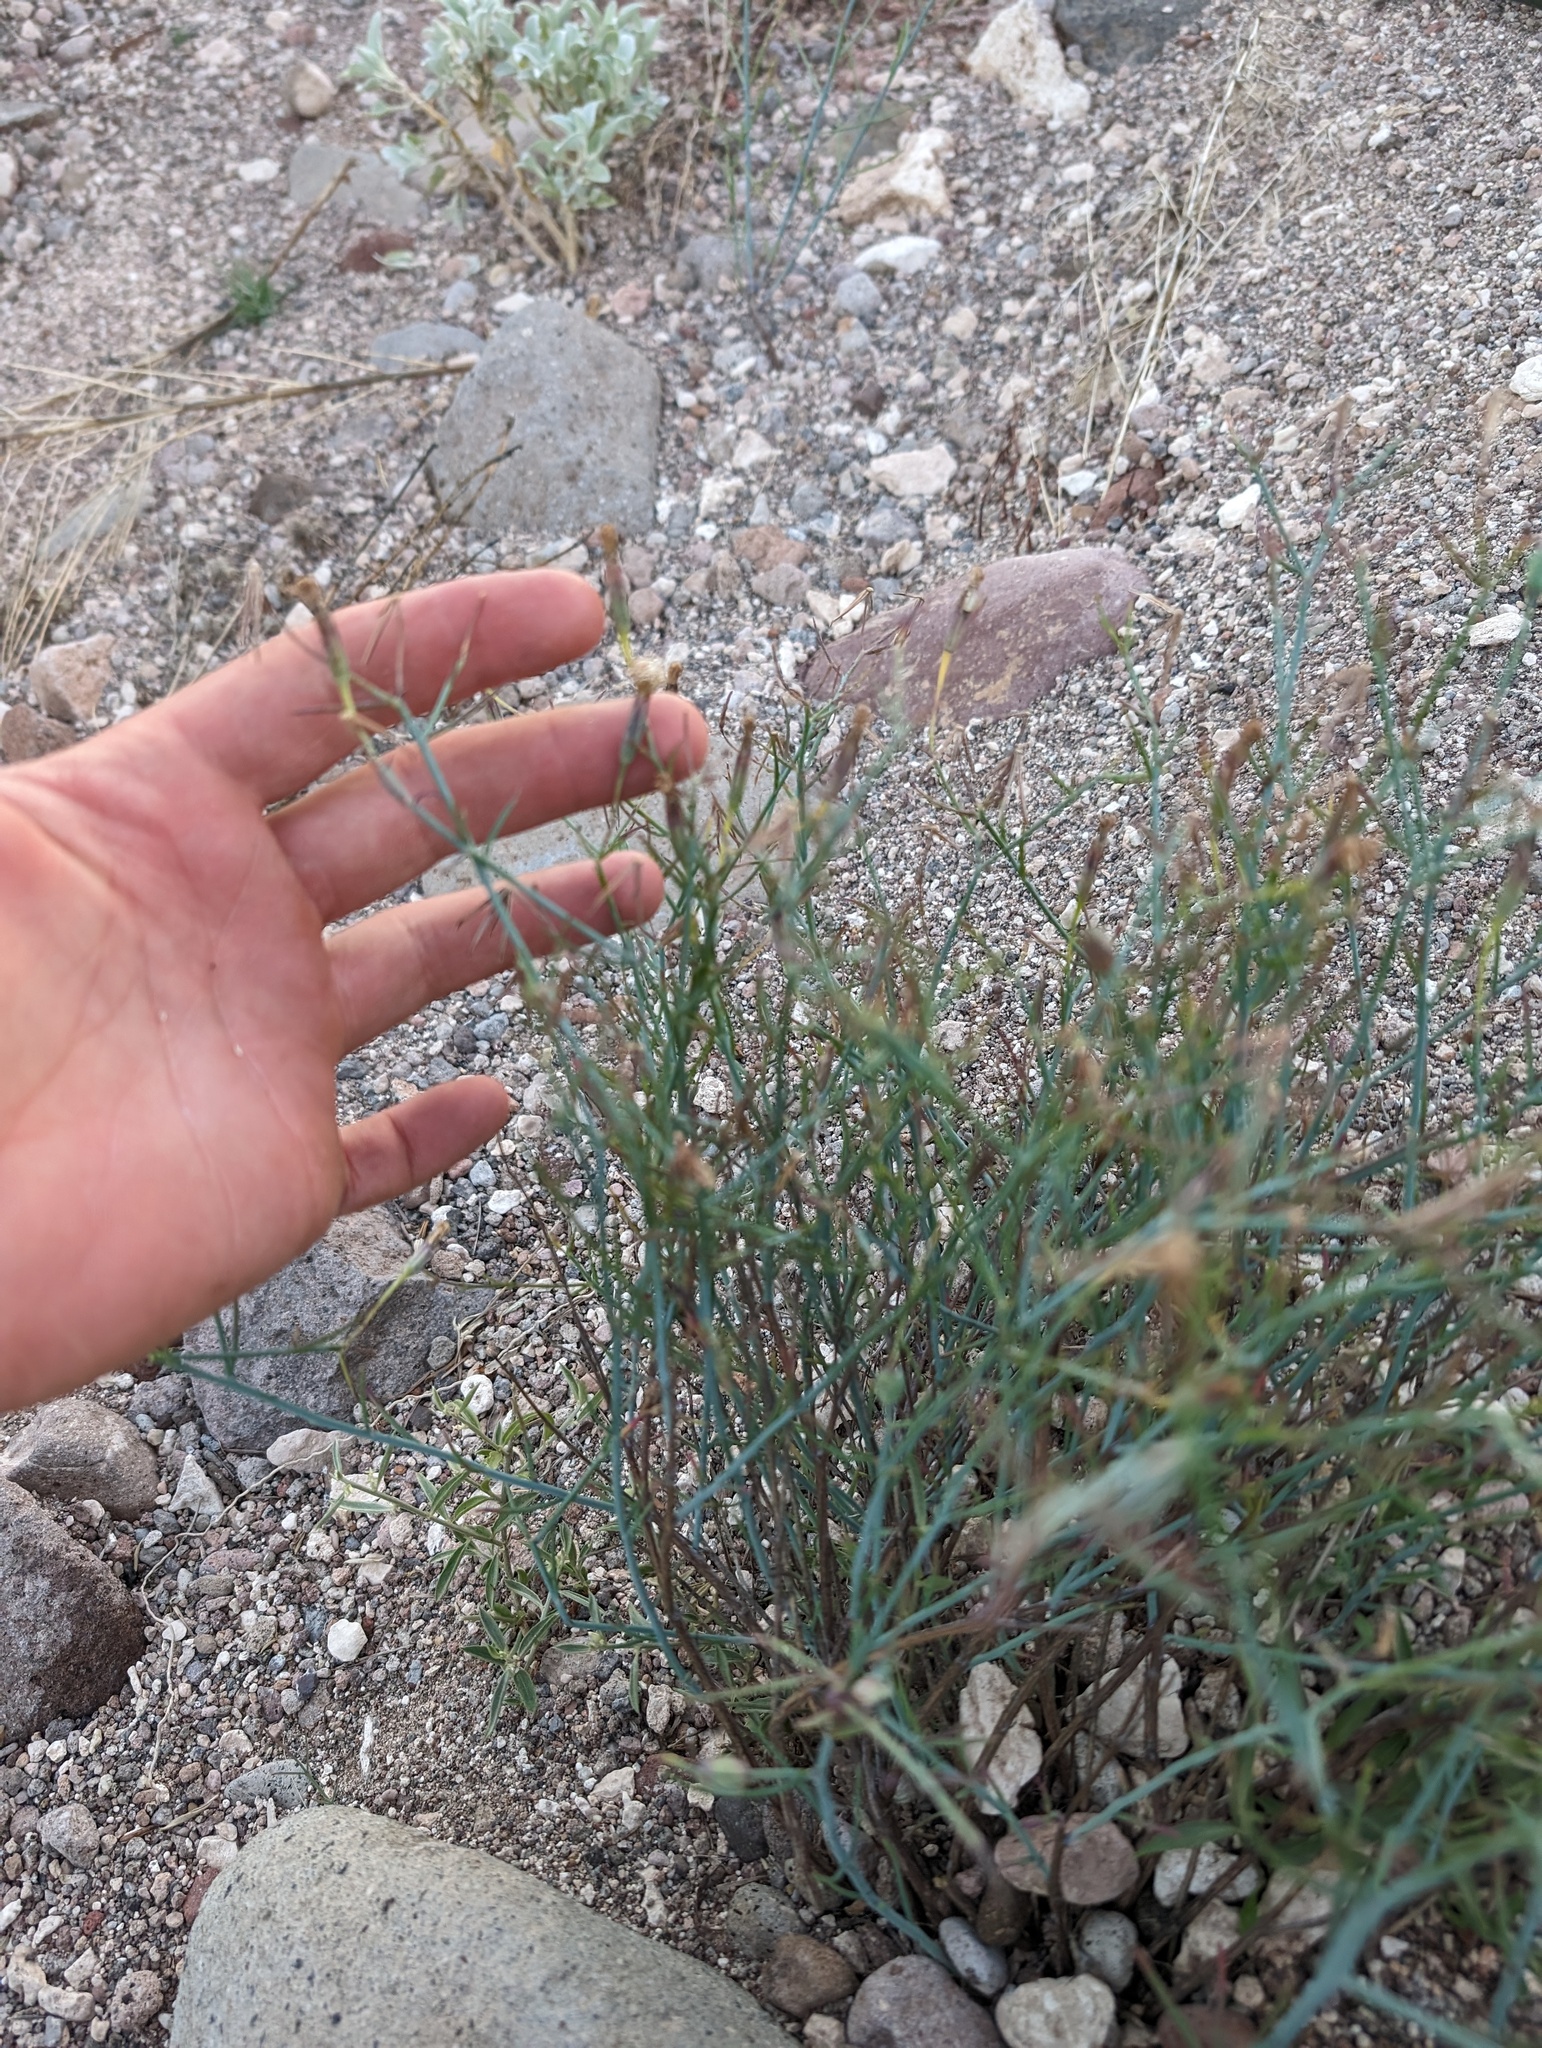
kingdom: Plantae
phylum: Tracheophyta
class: Magnoliopsida
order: Asterales
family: Asteraceae
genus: Porophyllum
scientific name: Porophyllum gracile
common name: Odora
